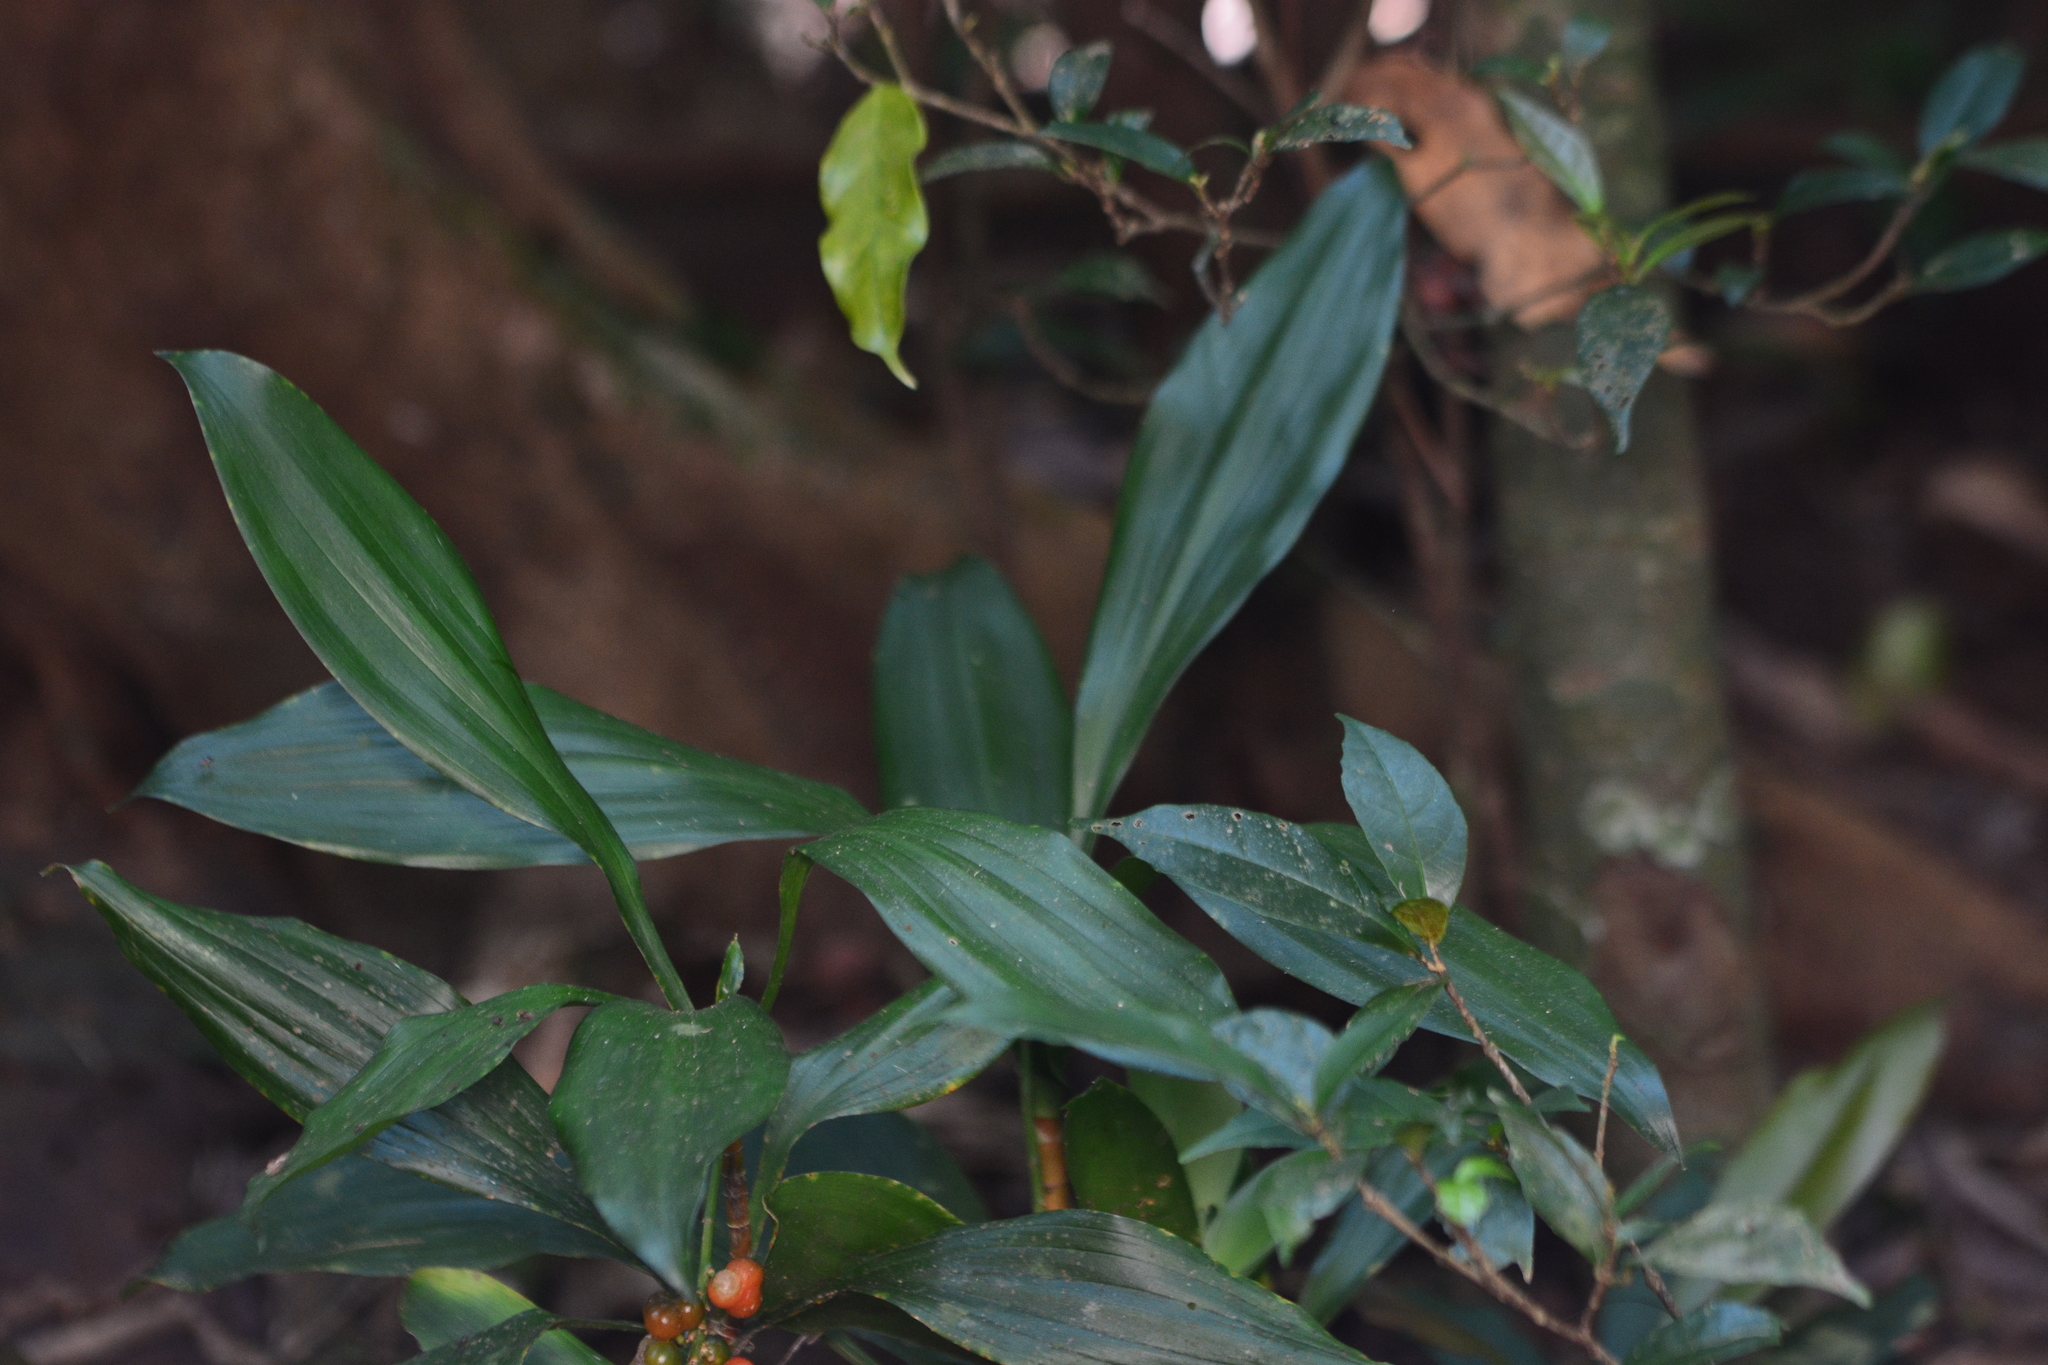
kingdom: Plantae
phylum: Tracheophyta
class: Liliopsida
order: Asparagales
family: Asparagaceae
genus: Dracaena
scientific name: Dracaena terniflora
